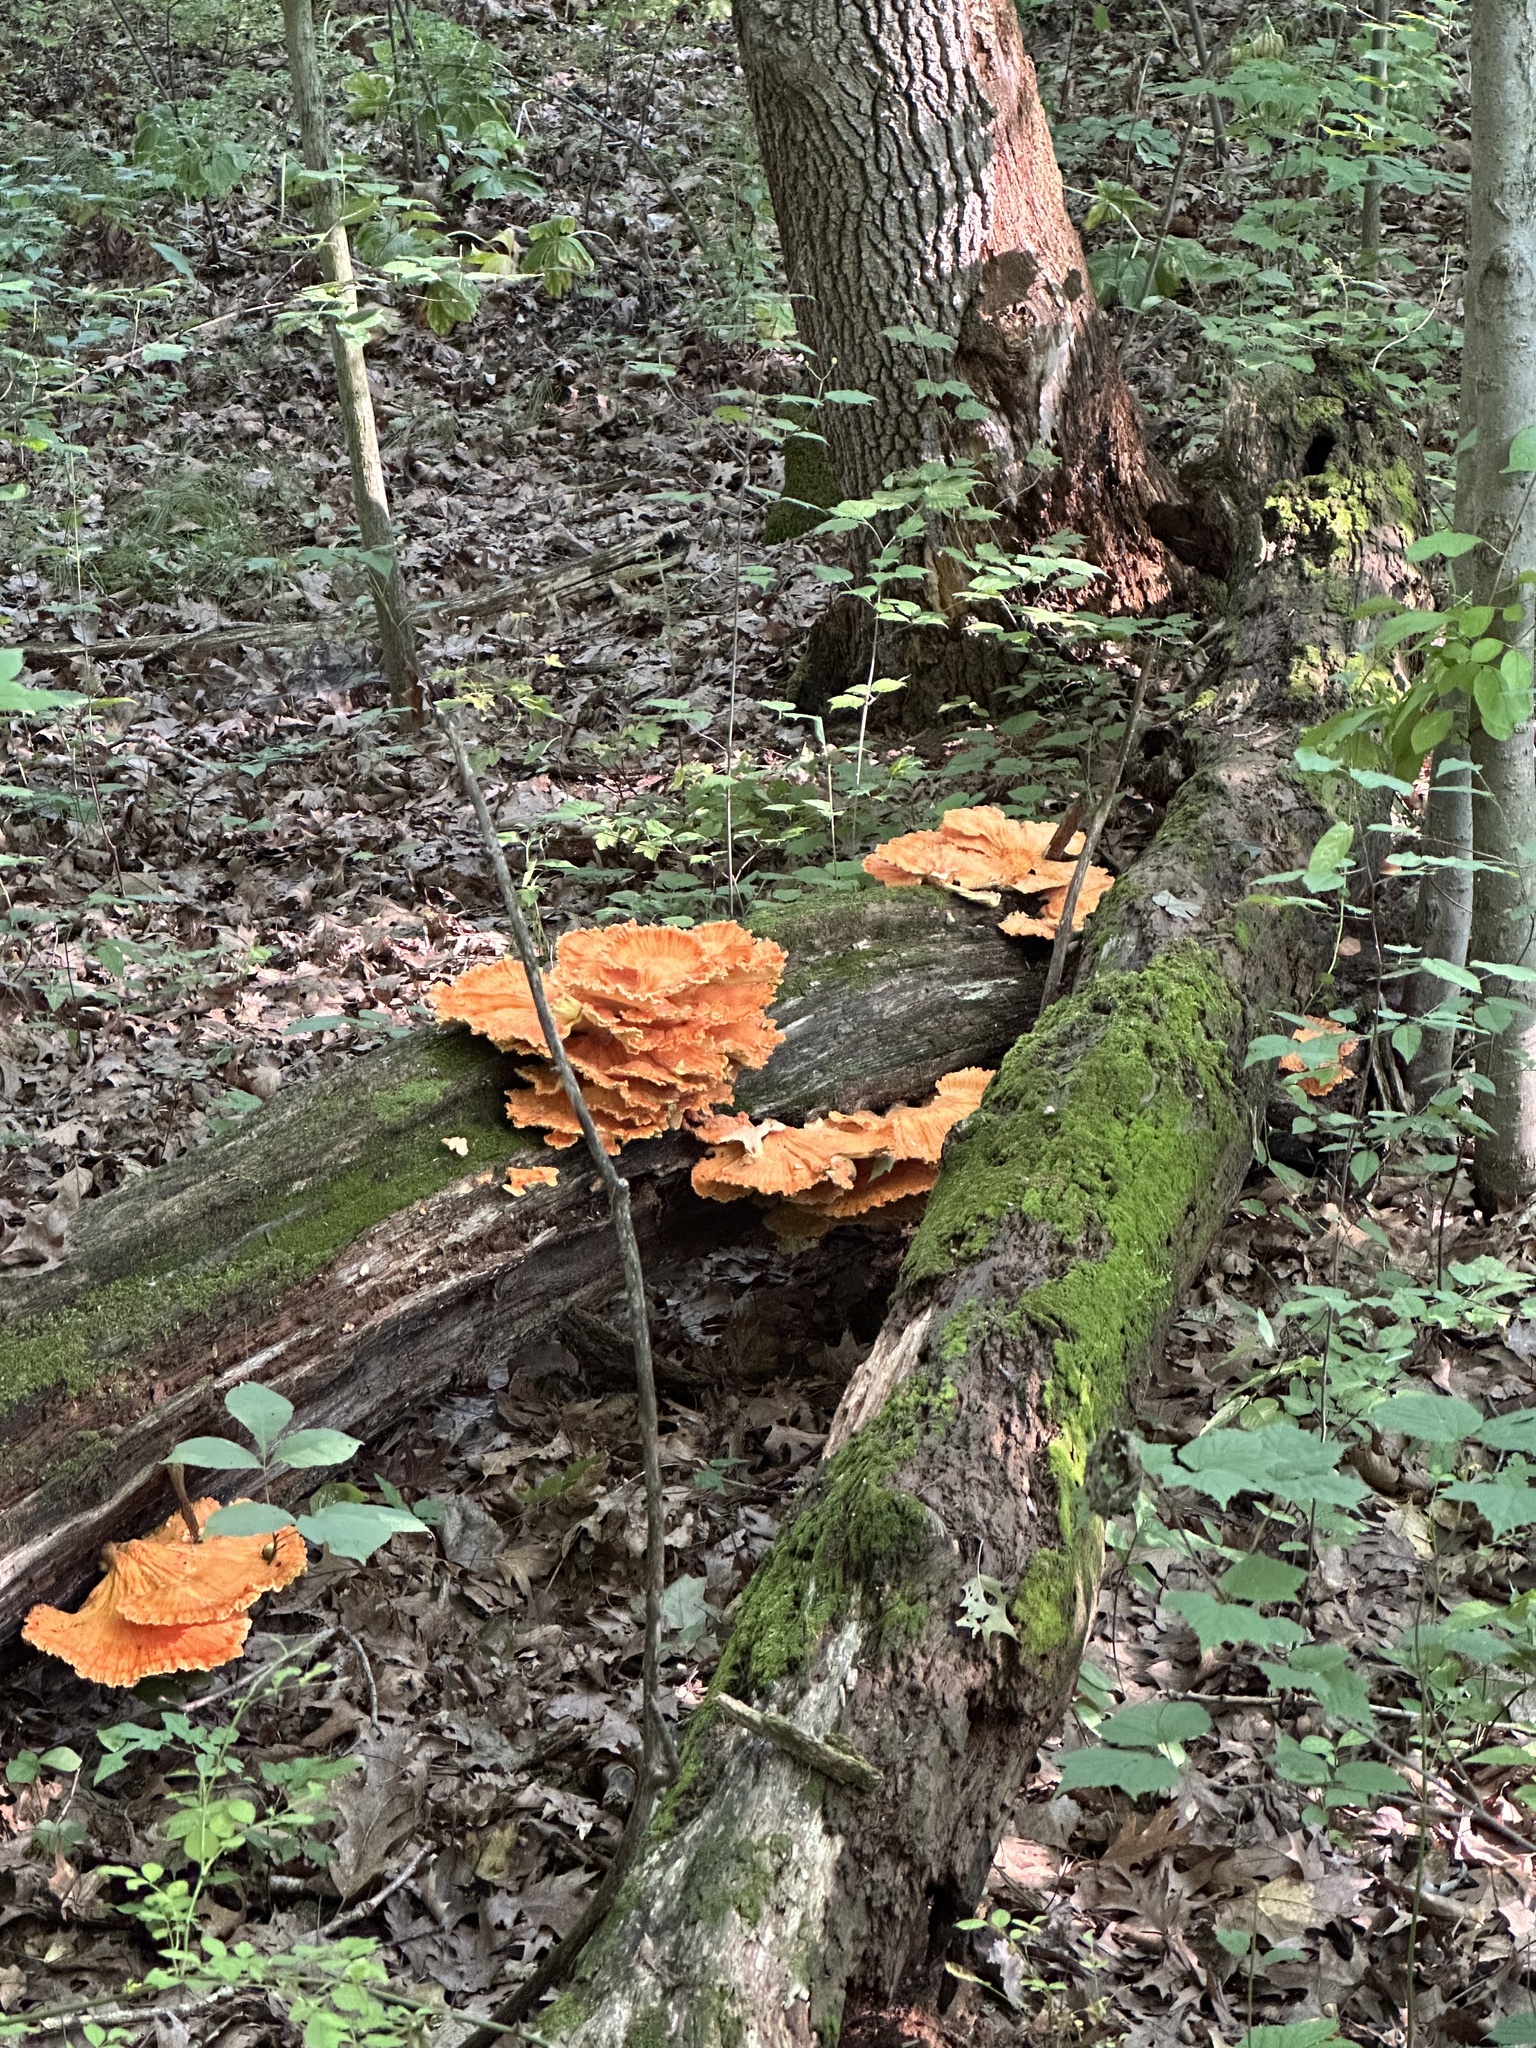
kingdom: Fungi
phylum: Basidiomycota
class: Agaricomycetes
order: Polyporales
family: Laetiporaceae
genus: Laetiporus
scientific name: Laetiporus sulphureus
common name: Chicken of the woods
